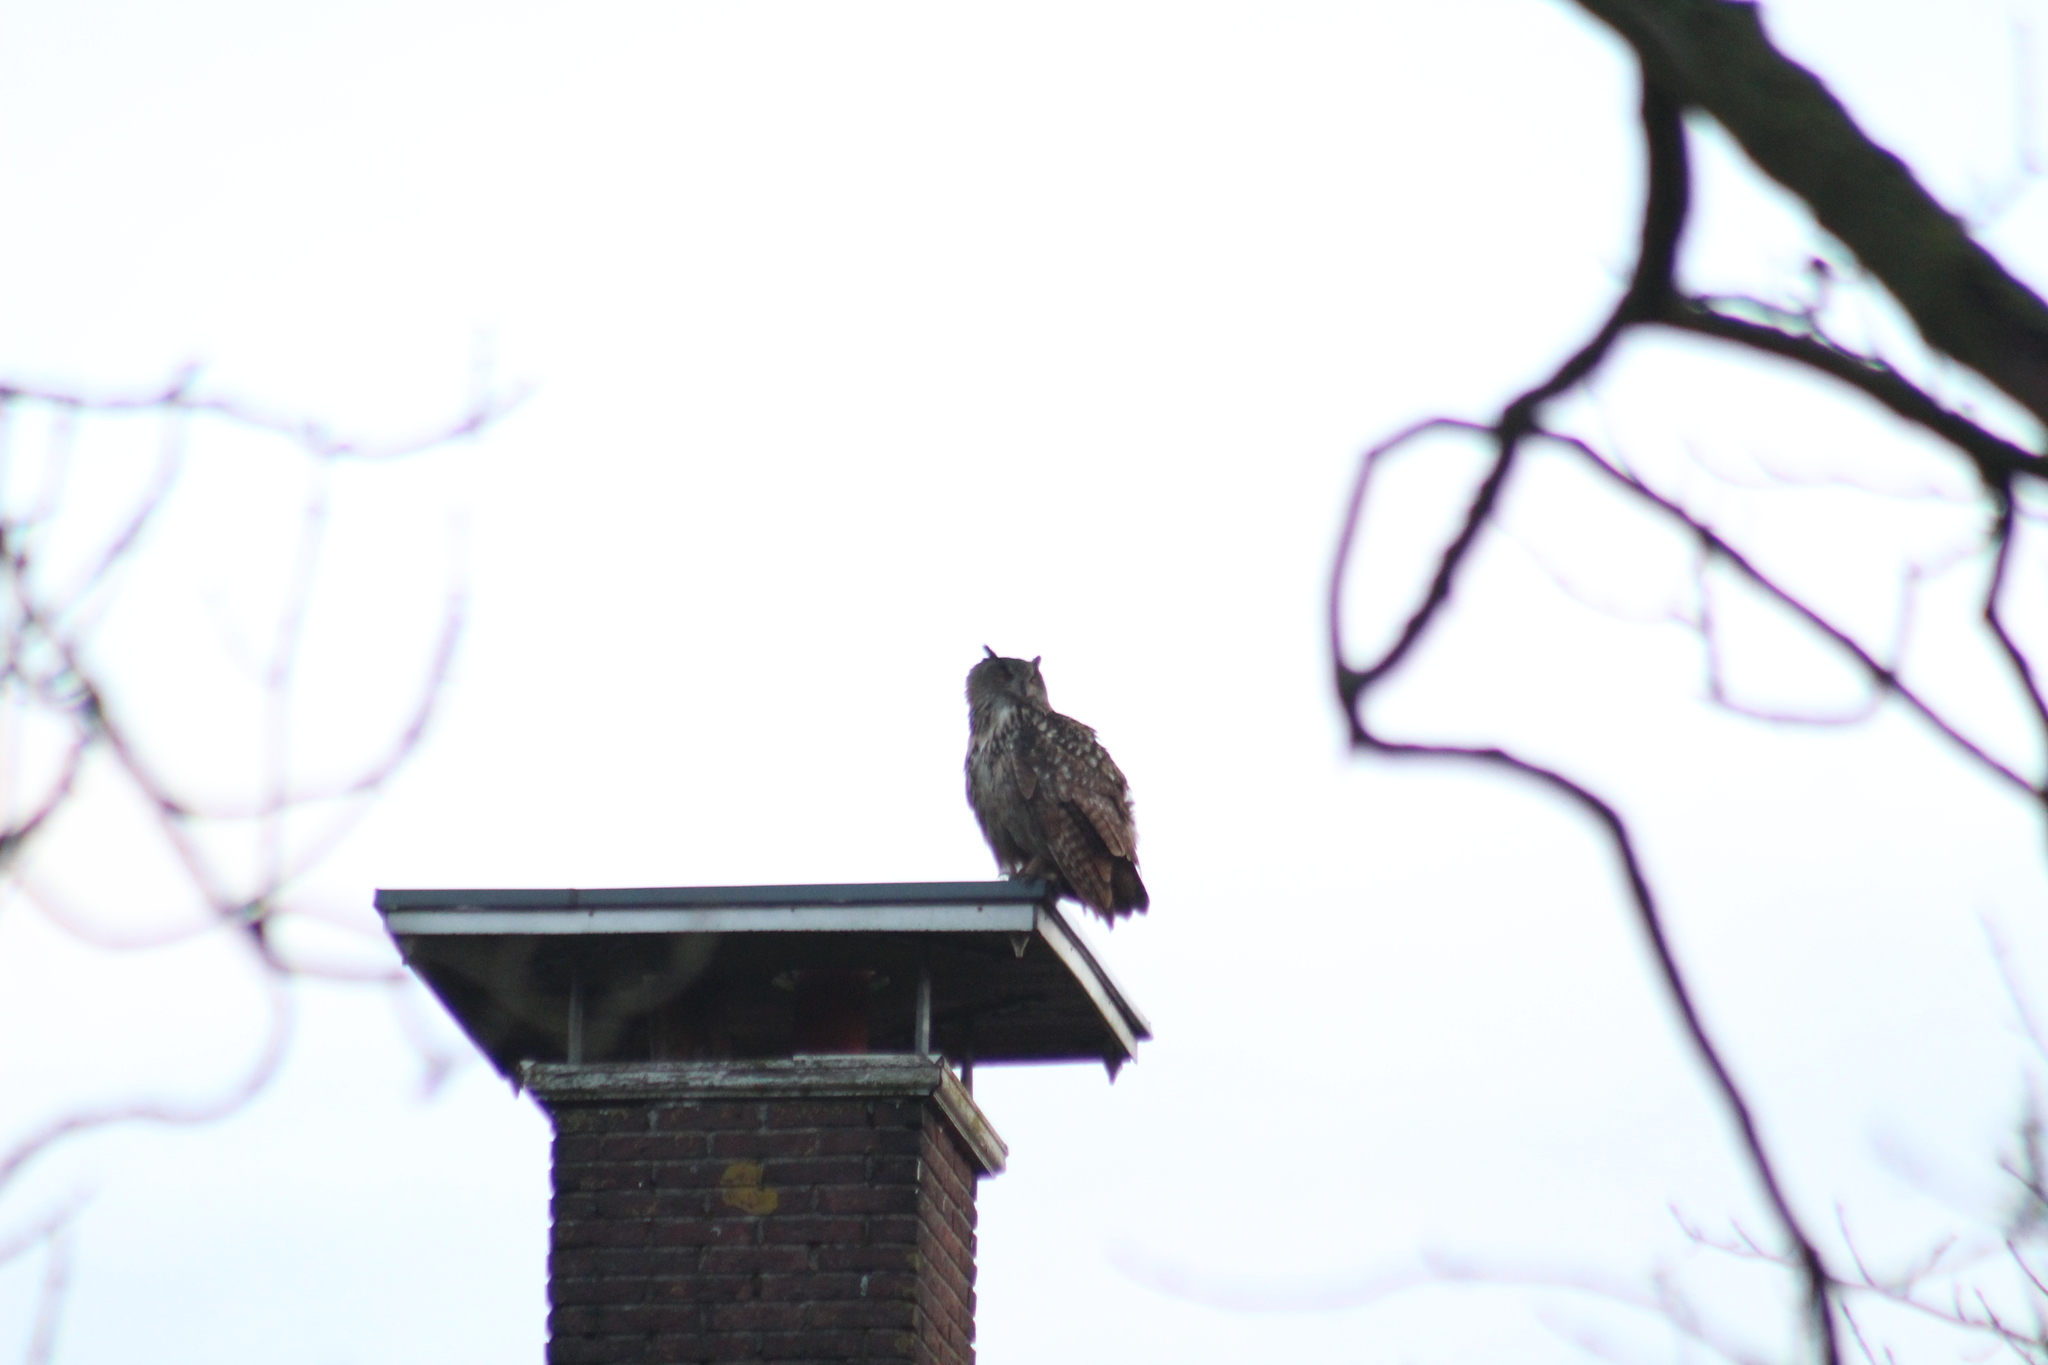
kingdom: Animalia
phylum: Chordata
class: Aves
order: Strigiformes
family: Strigidae
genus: Bubo
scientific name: Bubo bubo
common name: Eurasian eagle-owl
